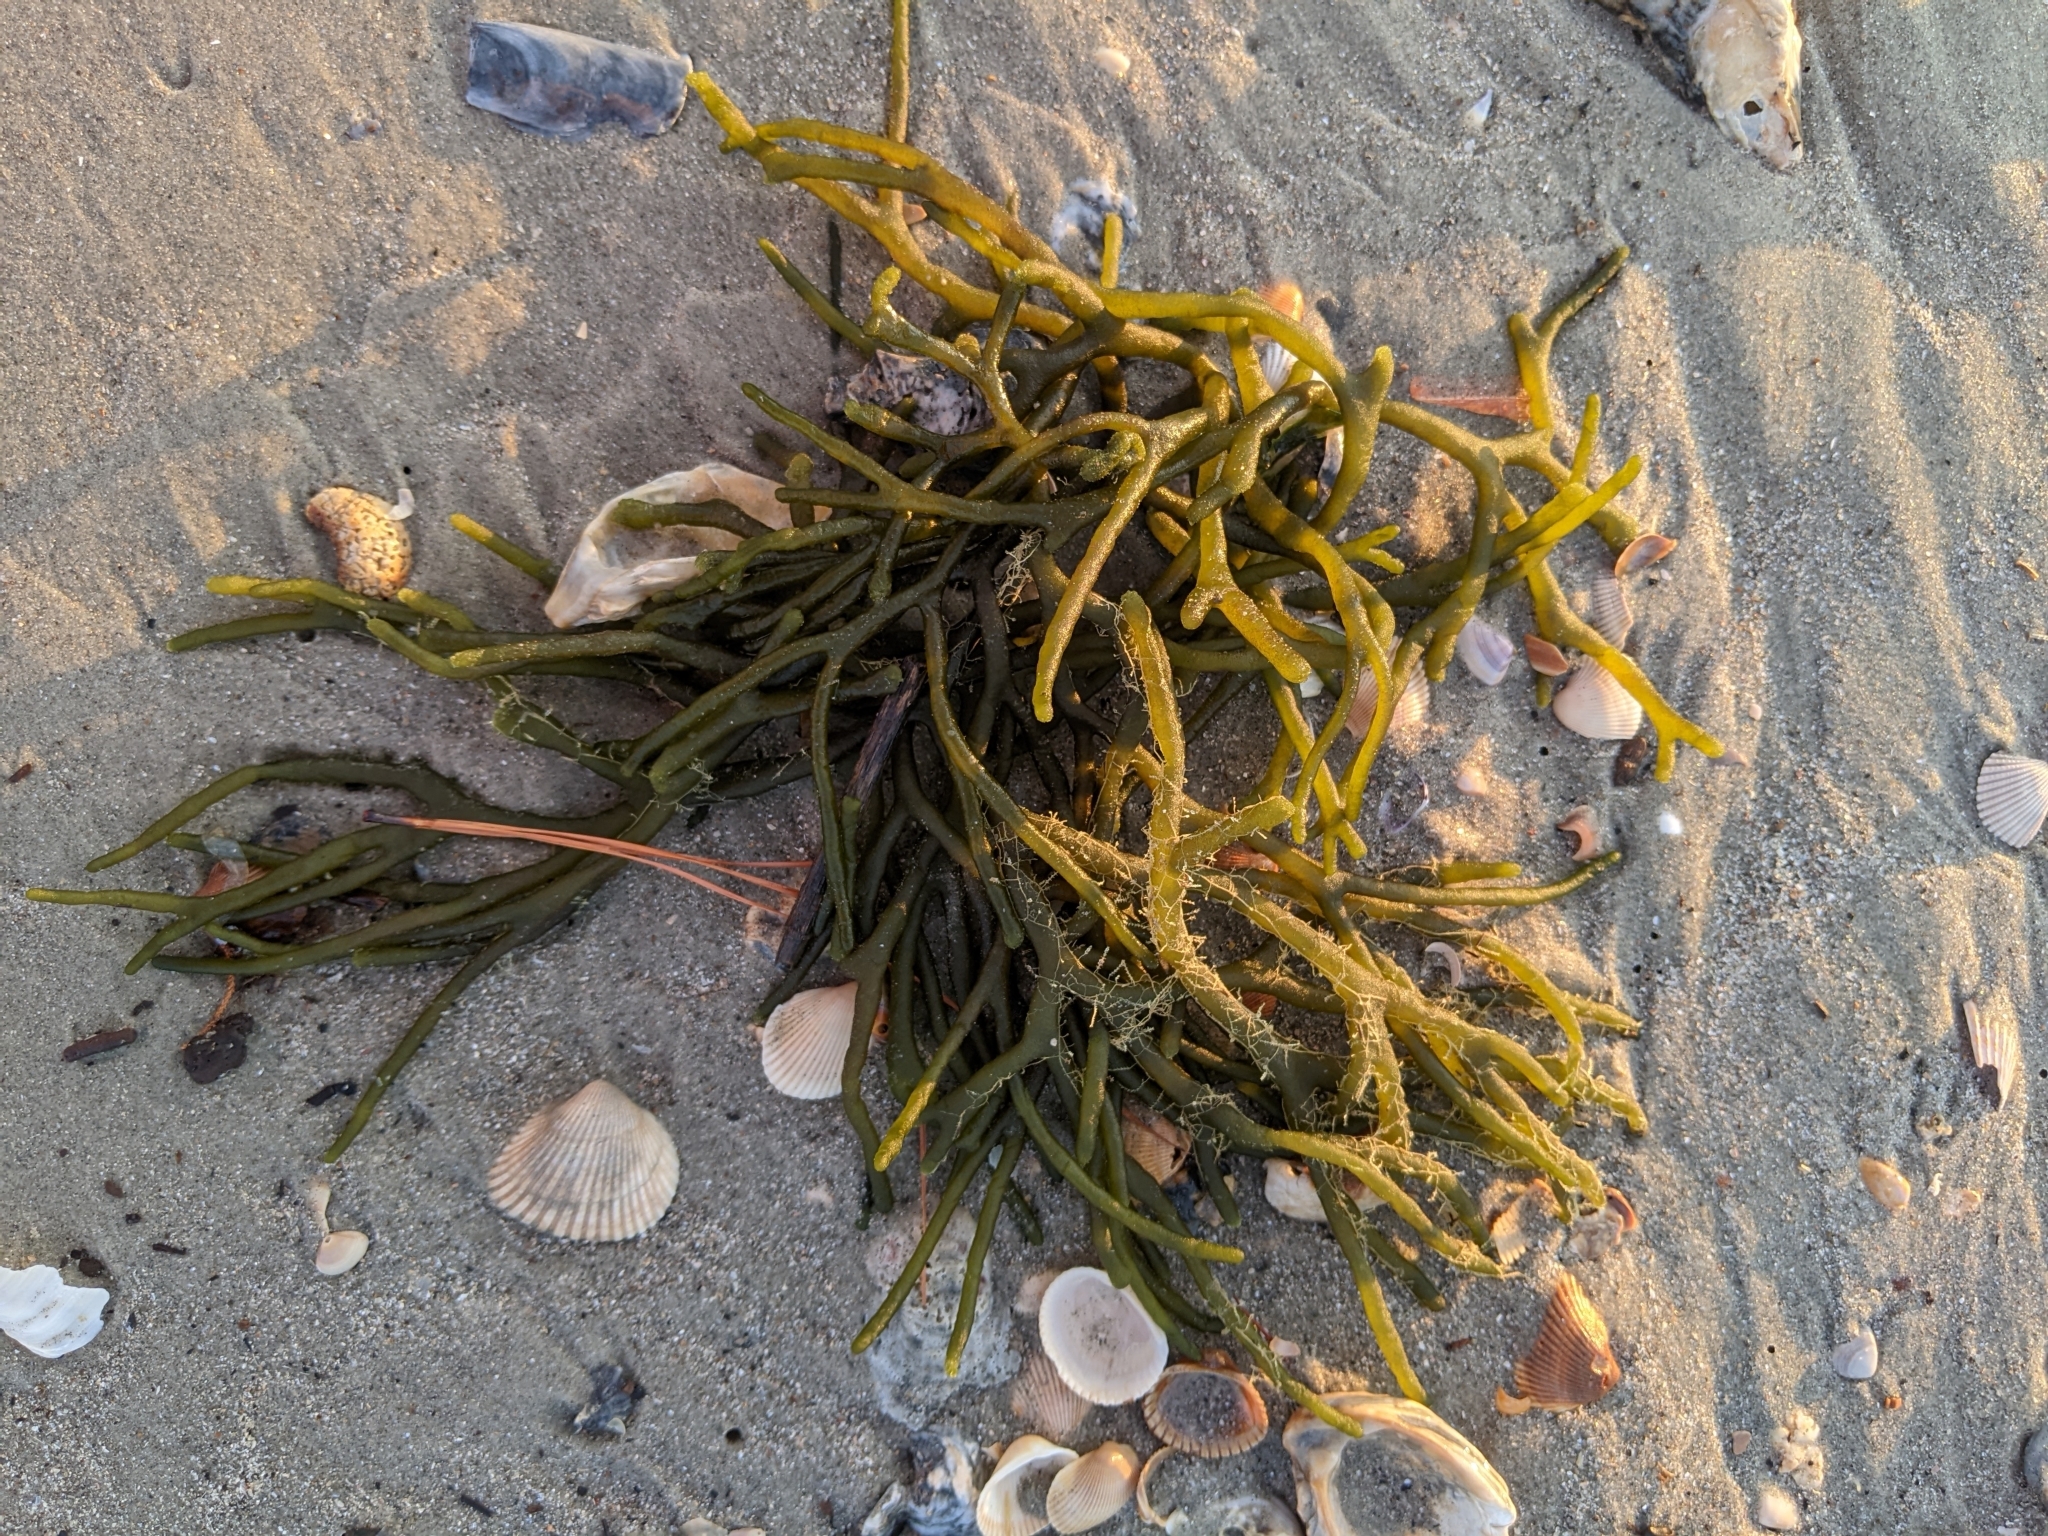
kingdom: Plantae
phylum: Chlorophyta
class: Ulvophyceae
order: Bryopsidales
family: Codiaceae
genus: Codium
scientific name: Codium fragile
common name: Dead man's fingers
